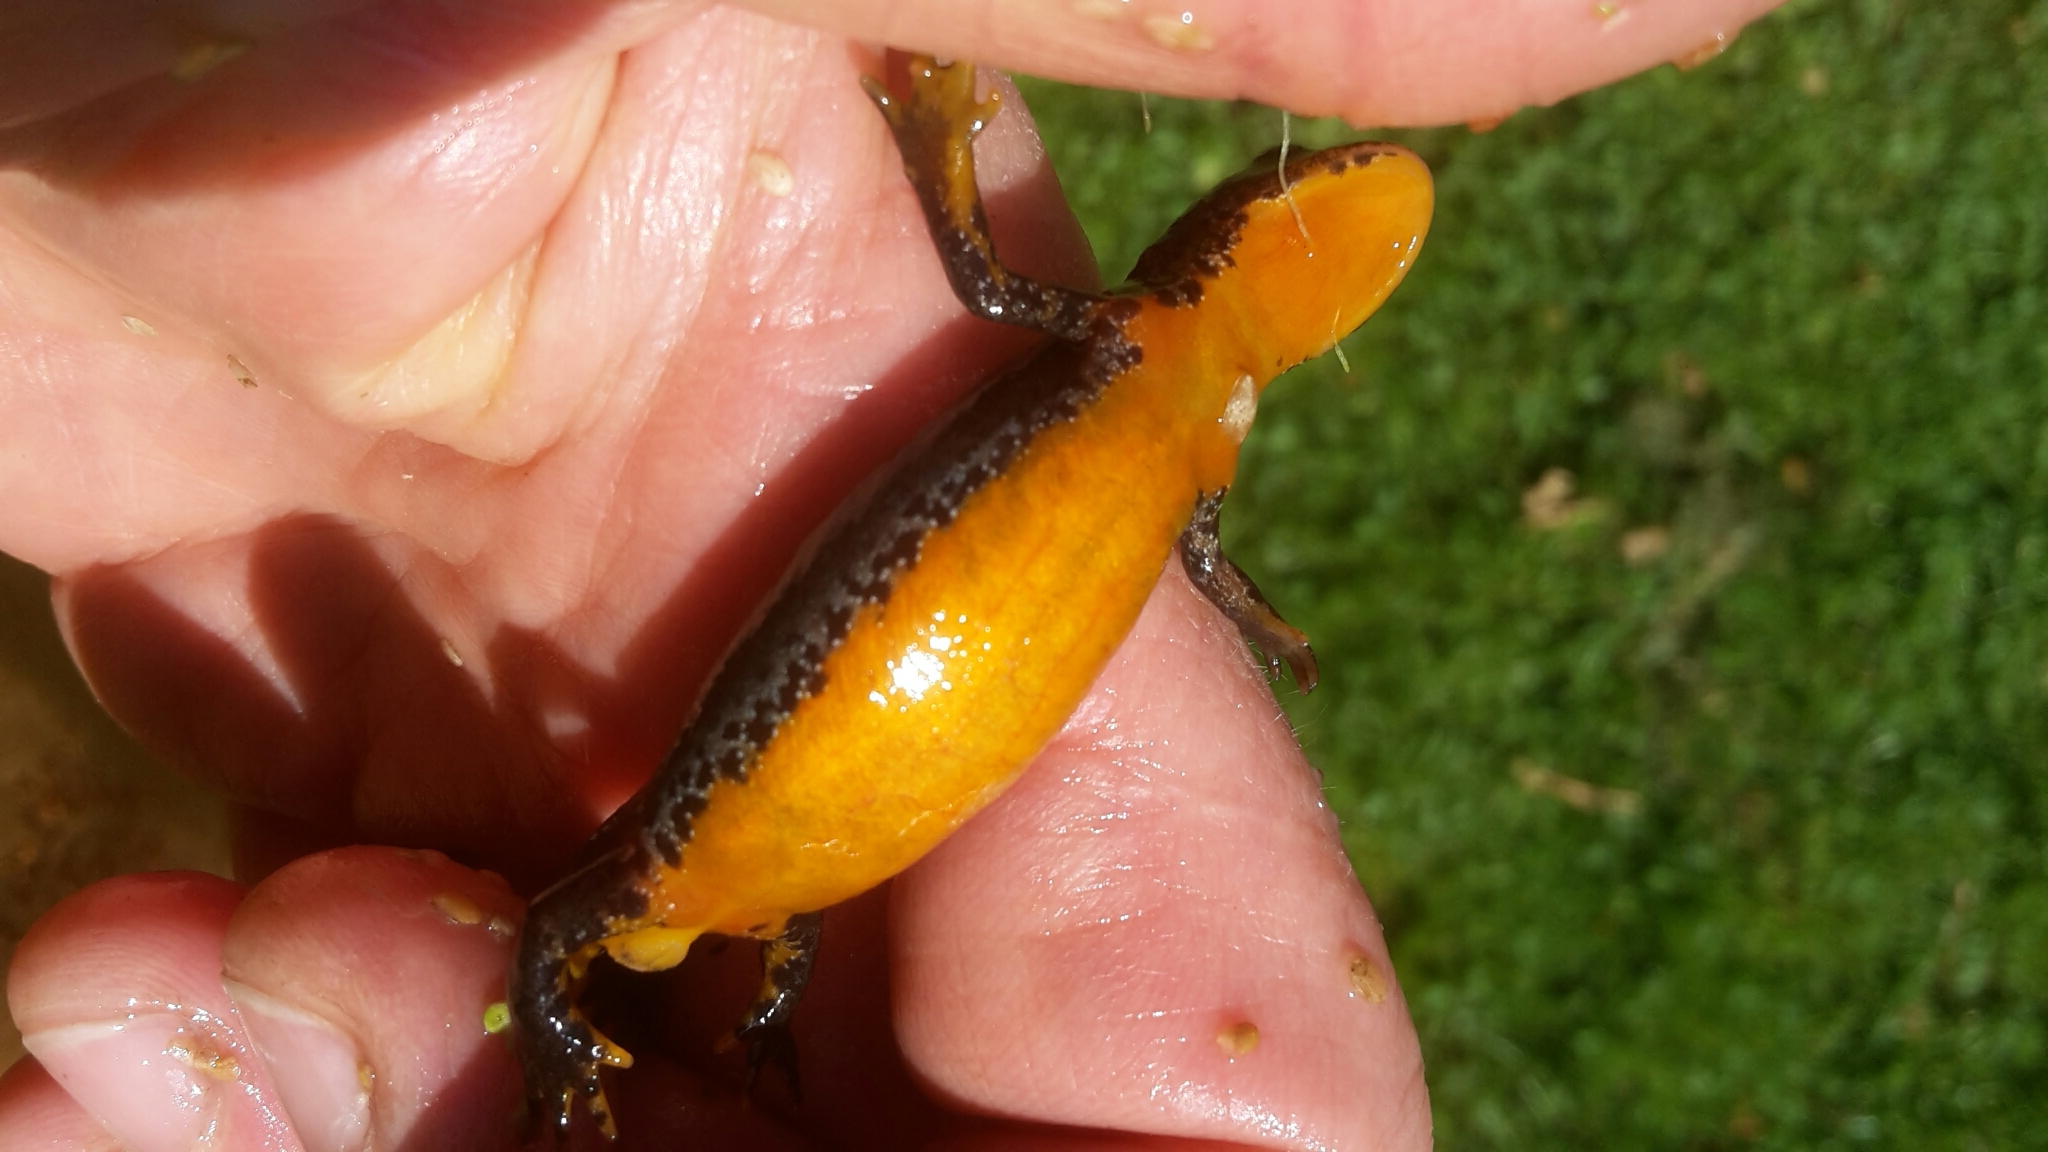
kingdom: Animalia
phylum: Chordata
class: Amphibia
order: Caudata
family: Salamandridae
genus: Ichthyosaura
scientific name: Ichthyosaura alpestris
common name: Alpine newt
